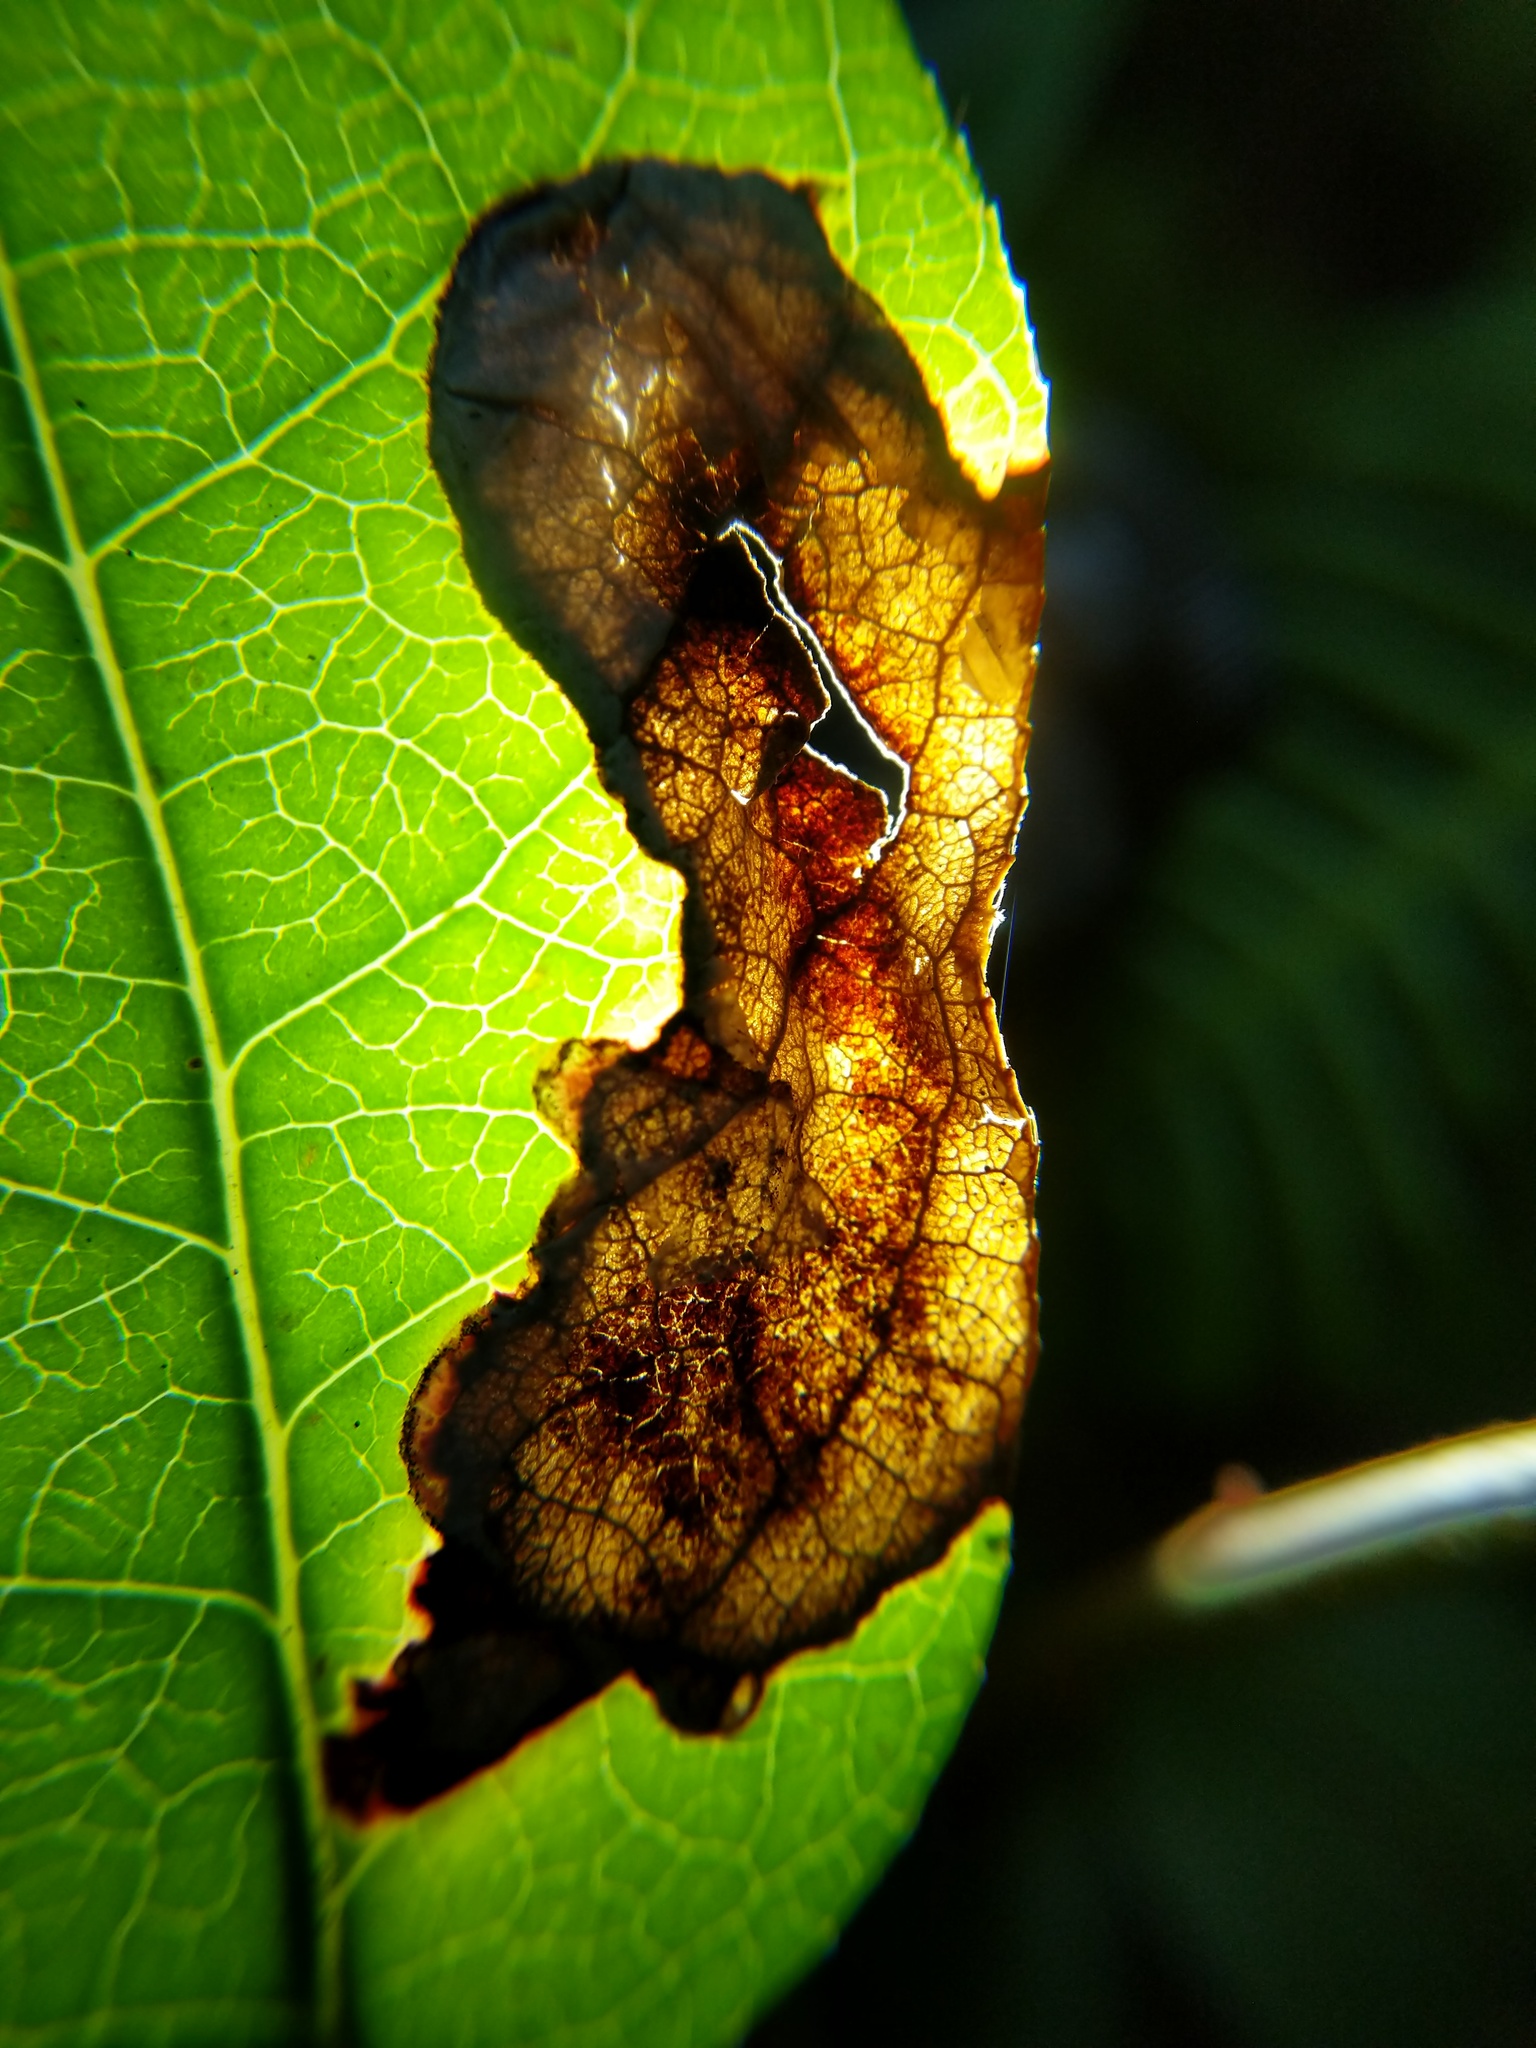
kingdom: Animalia
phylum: Arthropoda
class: Insecta
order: Lepidoptera
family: Gracillariidae
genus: Cameraria
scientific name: Cameraria gaultheriella
